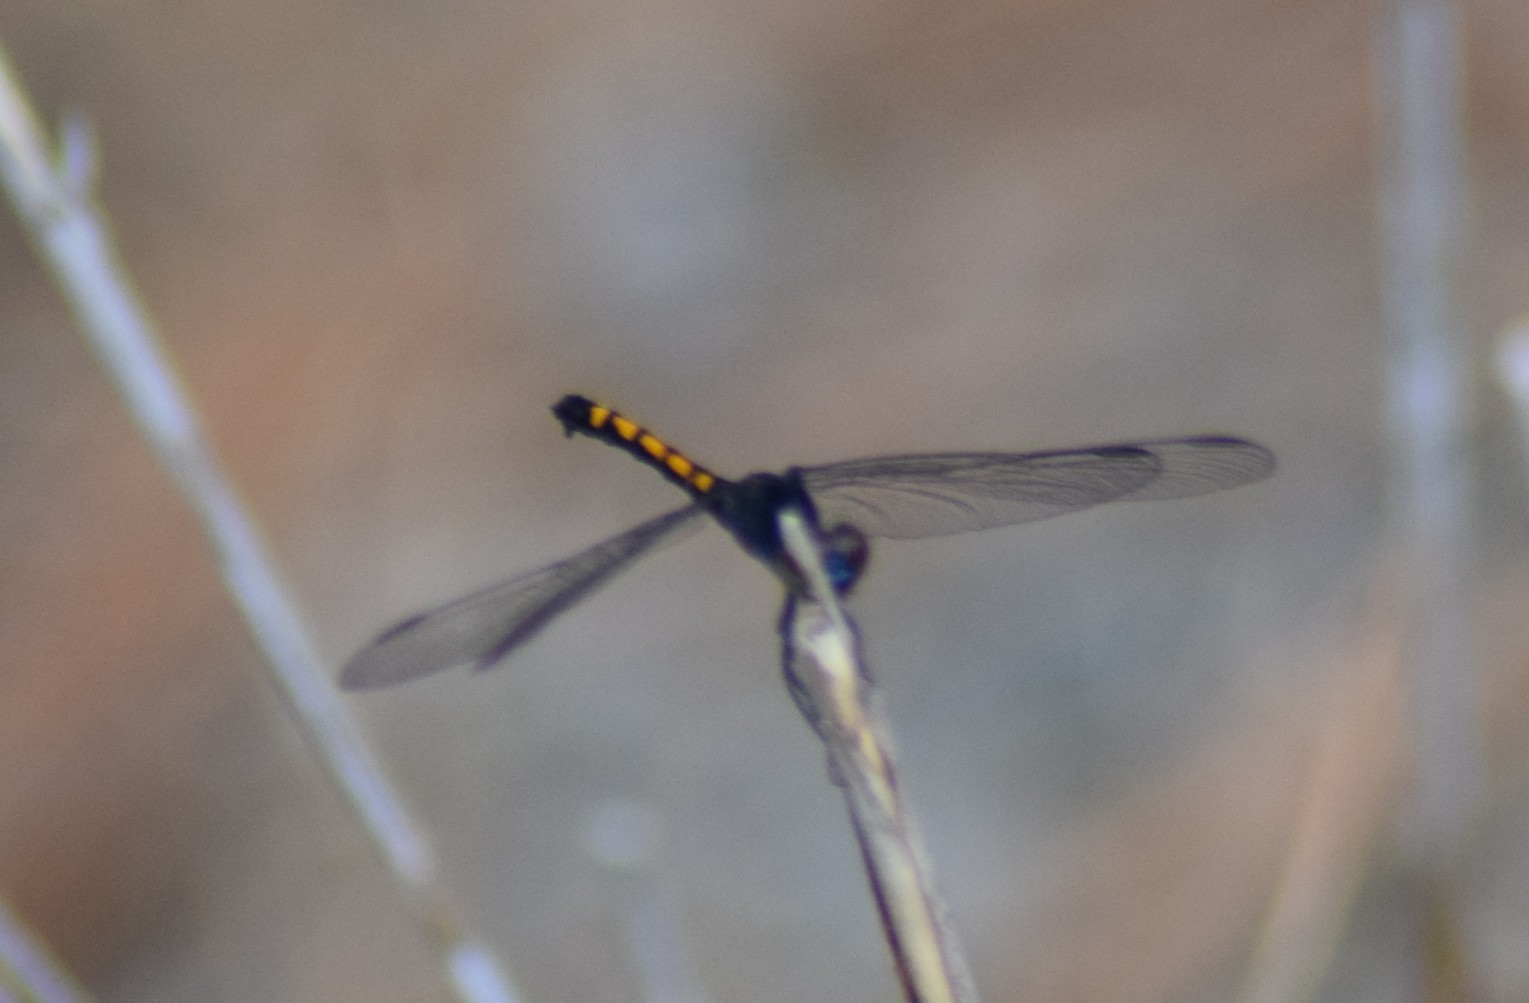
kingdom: Animalia
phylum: Arthropoda
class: Insecta
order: Odonata
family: Libellulidae
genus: Erythrodiplax
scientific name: Erythrodiplax berenice
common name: Seaside dragonlet
